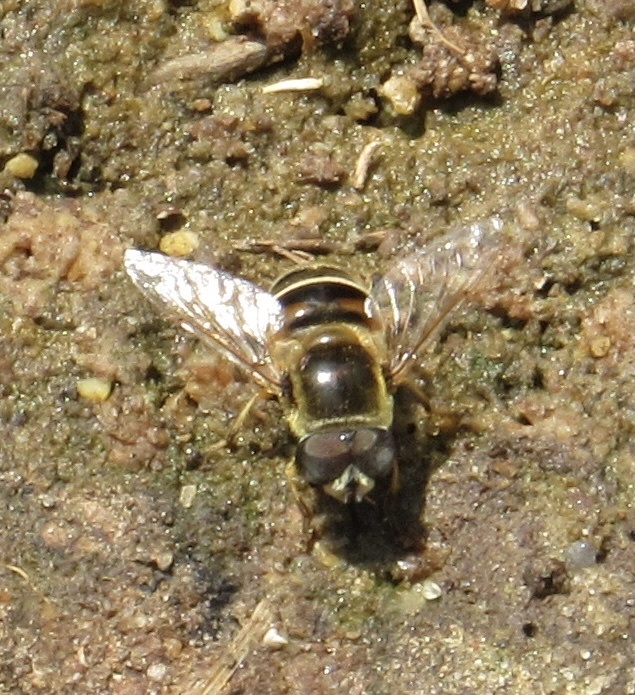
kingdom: Animalia
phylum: Arthropoda
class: Insecta
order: Diptera
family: Syrphidae
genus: Eristalis
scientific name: Eristalis stipator
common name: Yellow-shouldered drone fly
